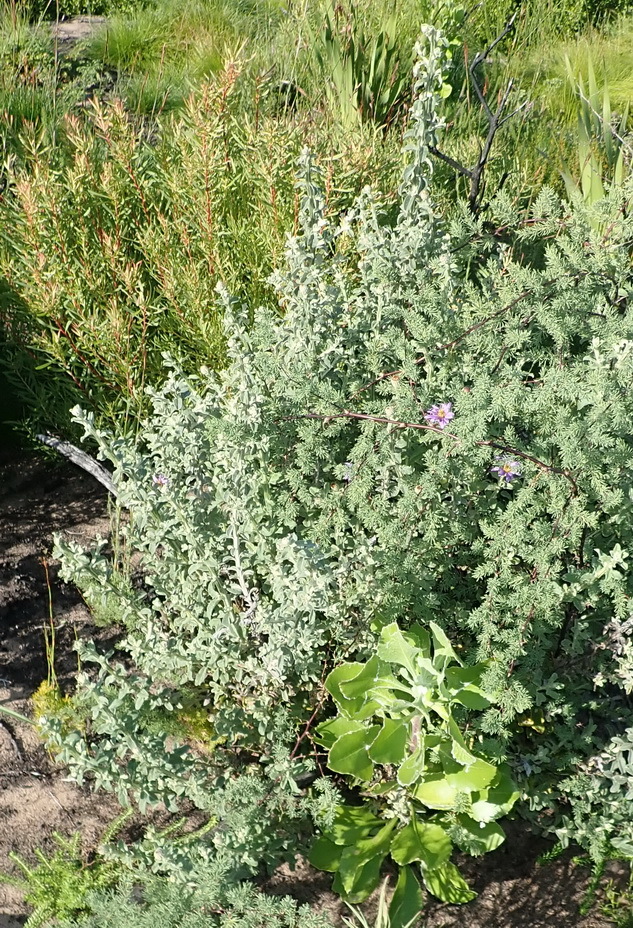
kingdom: Plantae
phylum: Tracheophyta
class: Magnoliopsida
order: Asterales
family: Asteraceae
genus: Printzia
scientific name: Printzia polifolia
